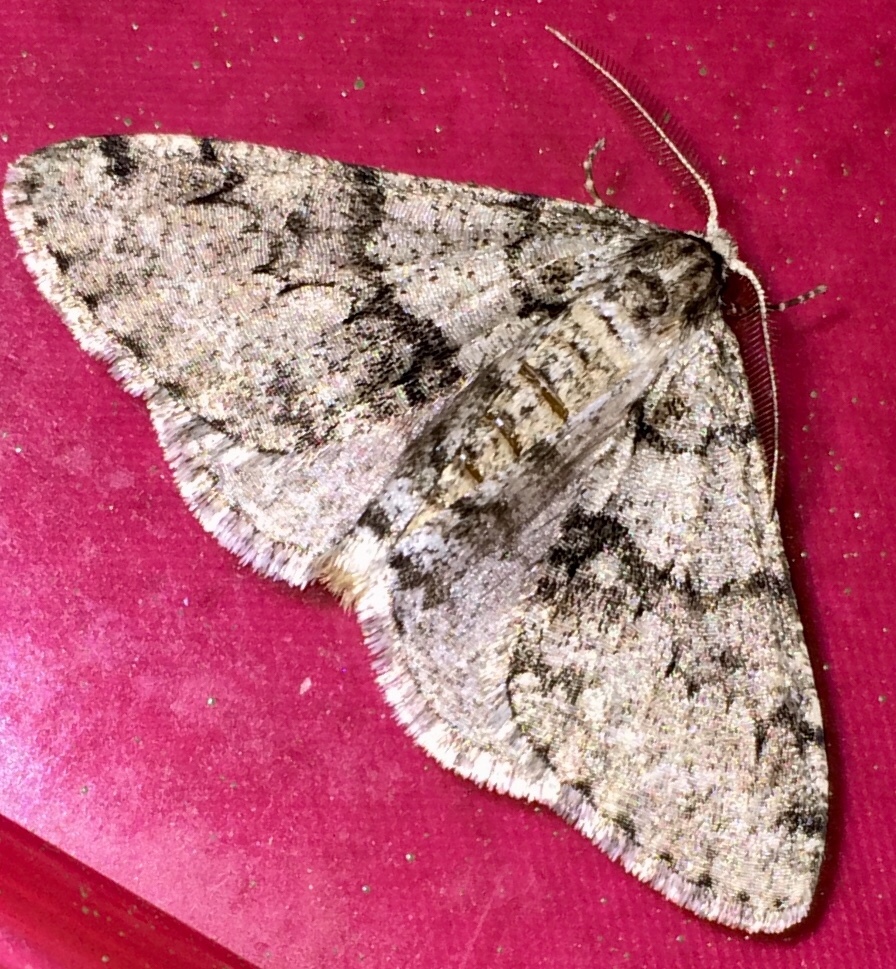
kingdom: Animalia
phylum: Arthropoda
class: Insecta
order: Lepidoptera
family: Geometridae
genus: Phigalia
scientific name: Phigalia denticulata
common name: Toothed phigalia
